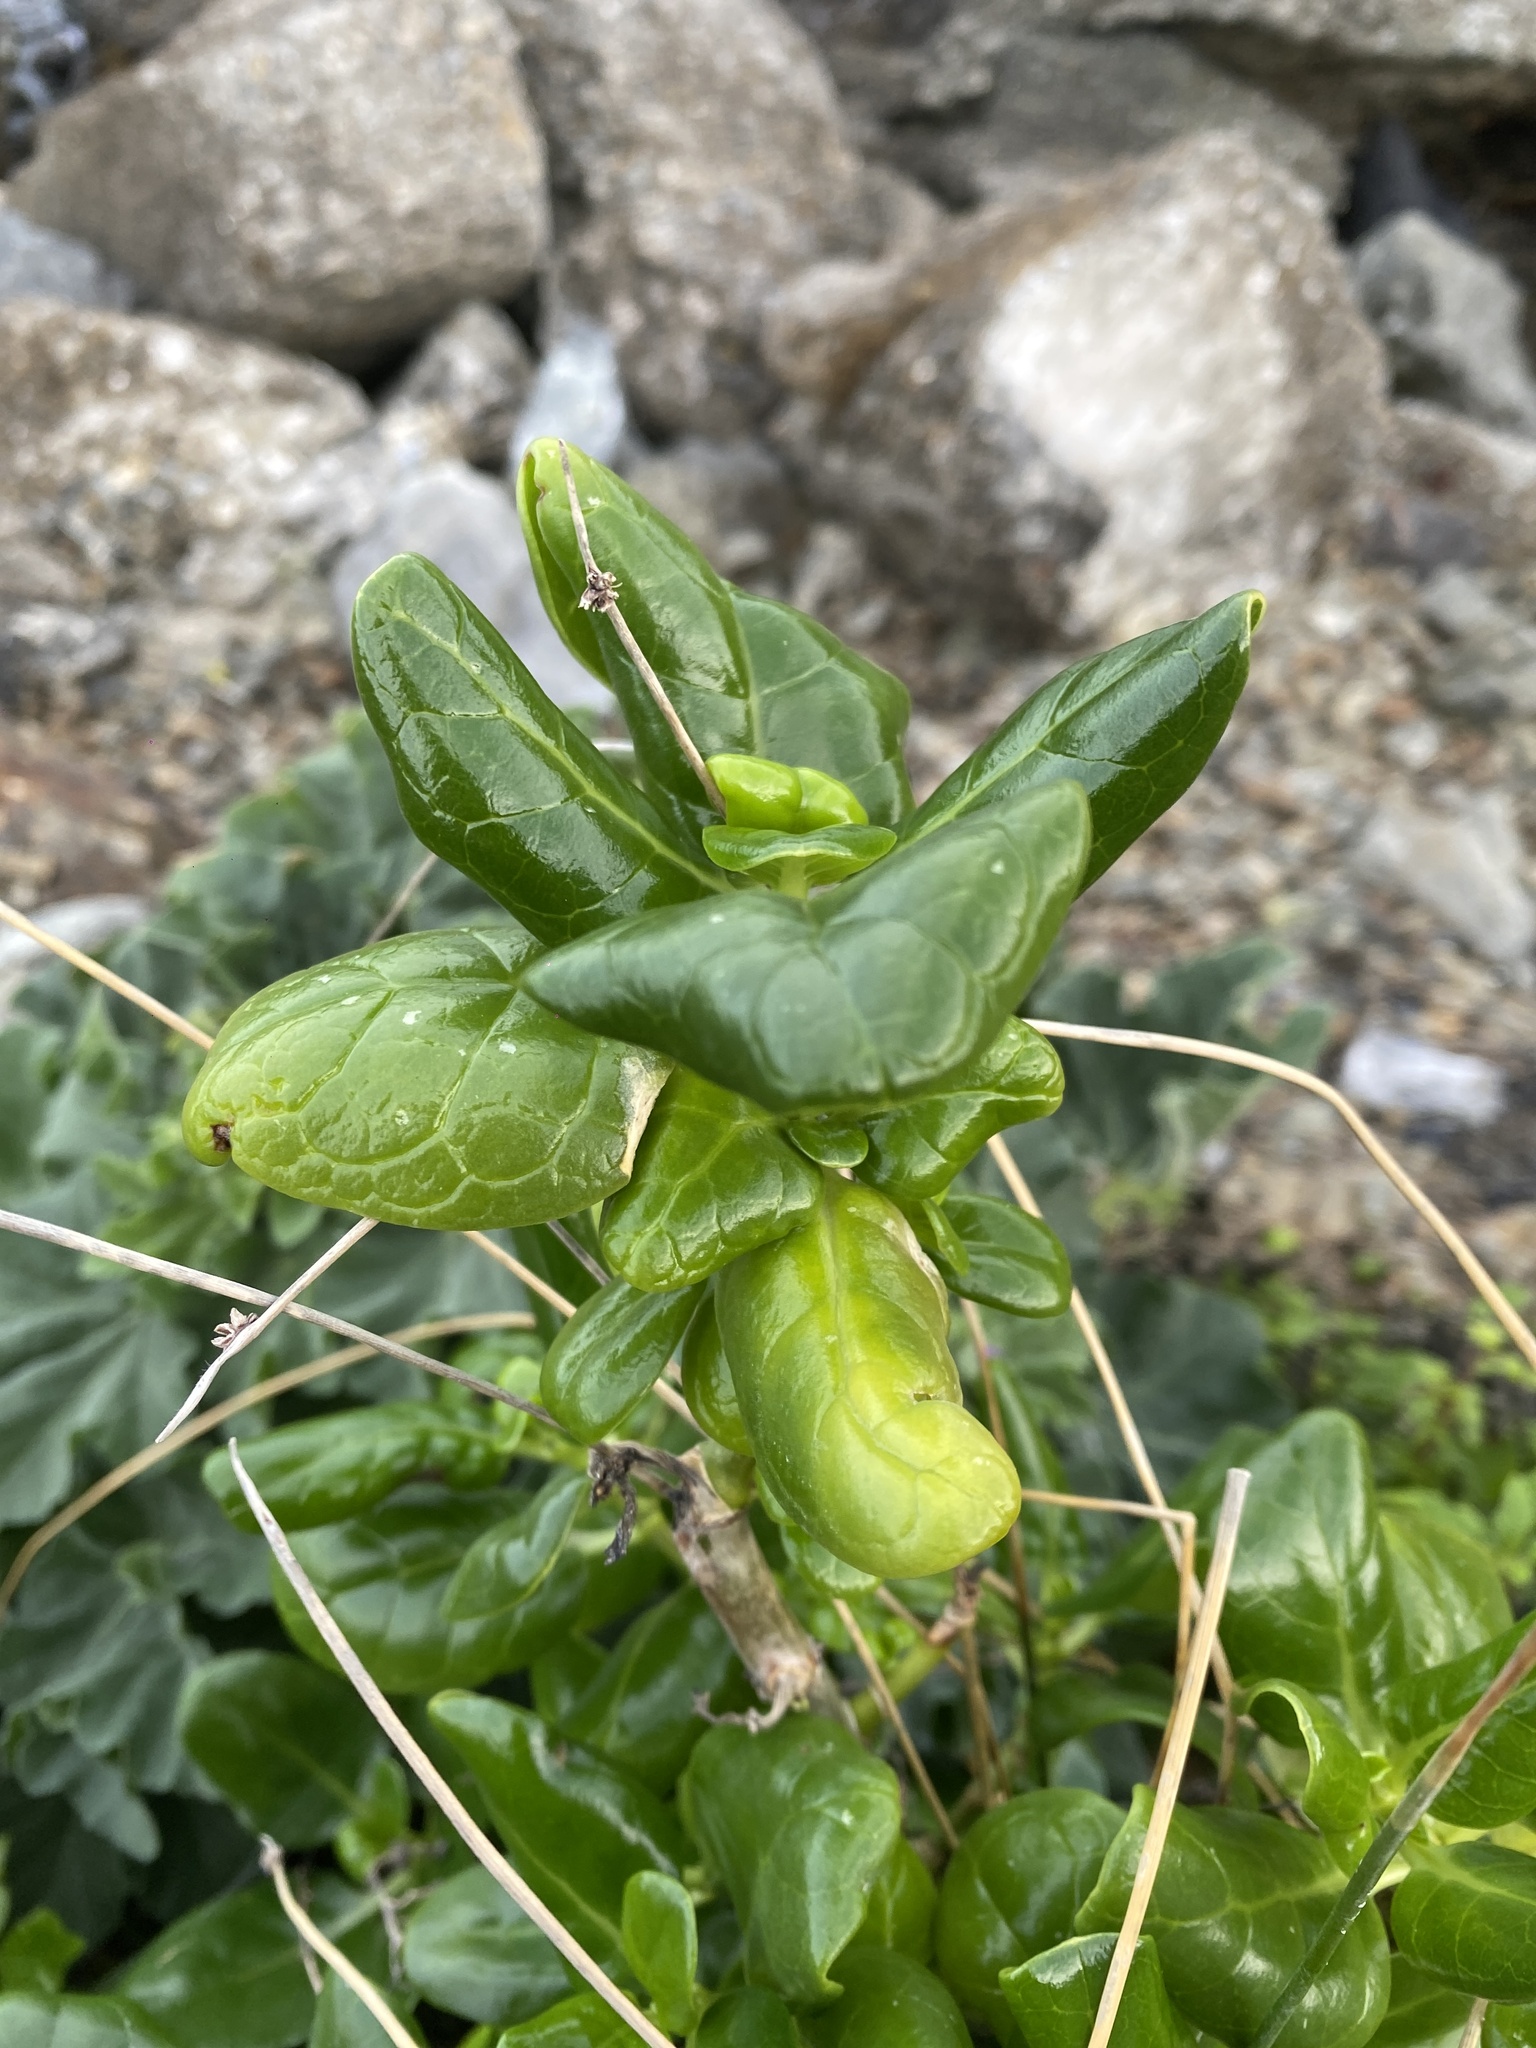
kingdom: Plantae
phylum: Tracheophyta
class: Magnoliopsida
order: Gentianales
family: Rubiaceae
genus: Coprosma
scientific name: Coprosma repens
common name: Tree bedstraw
